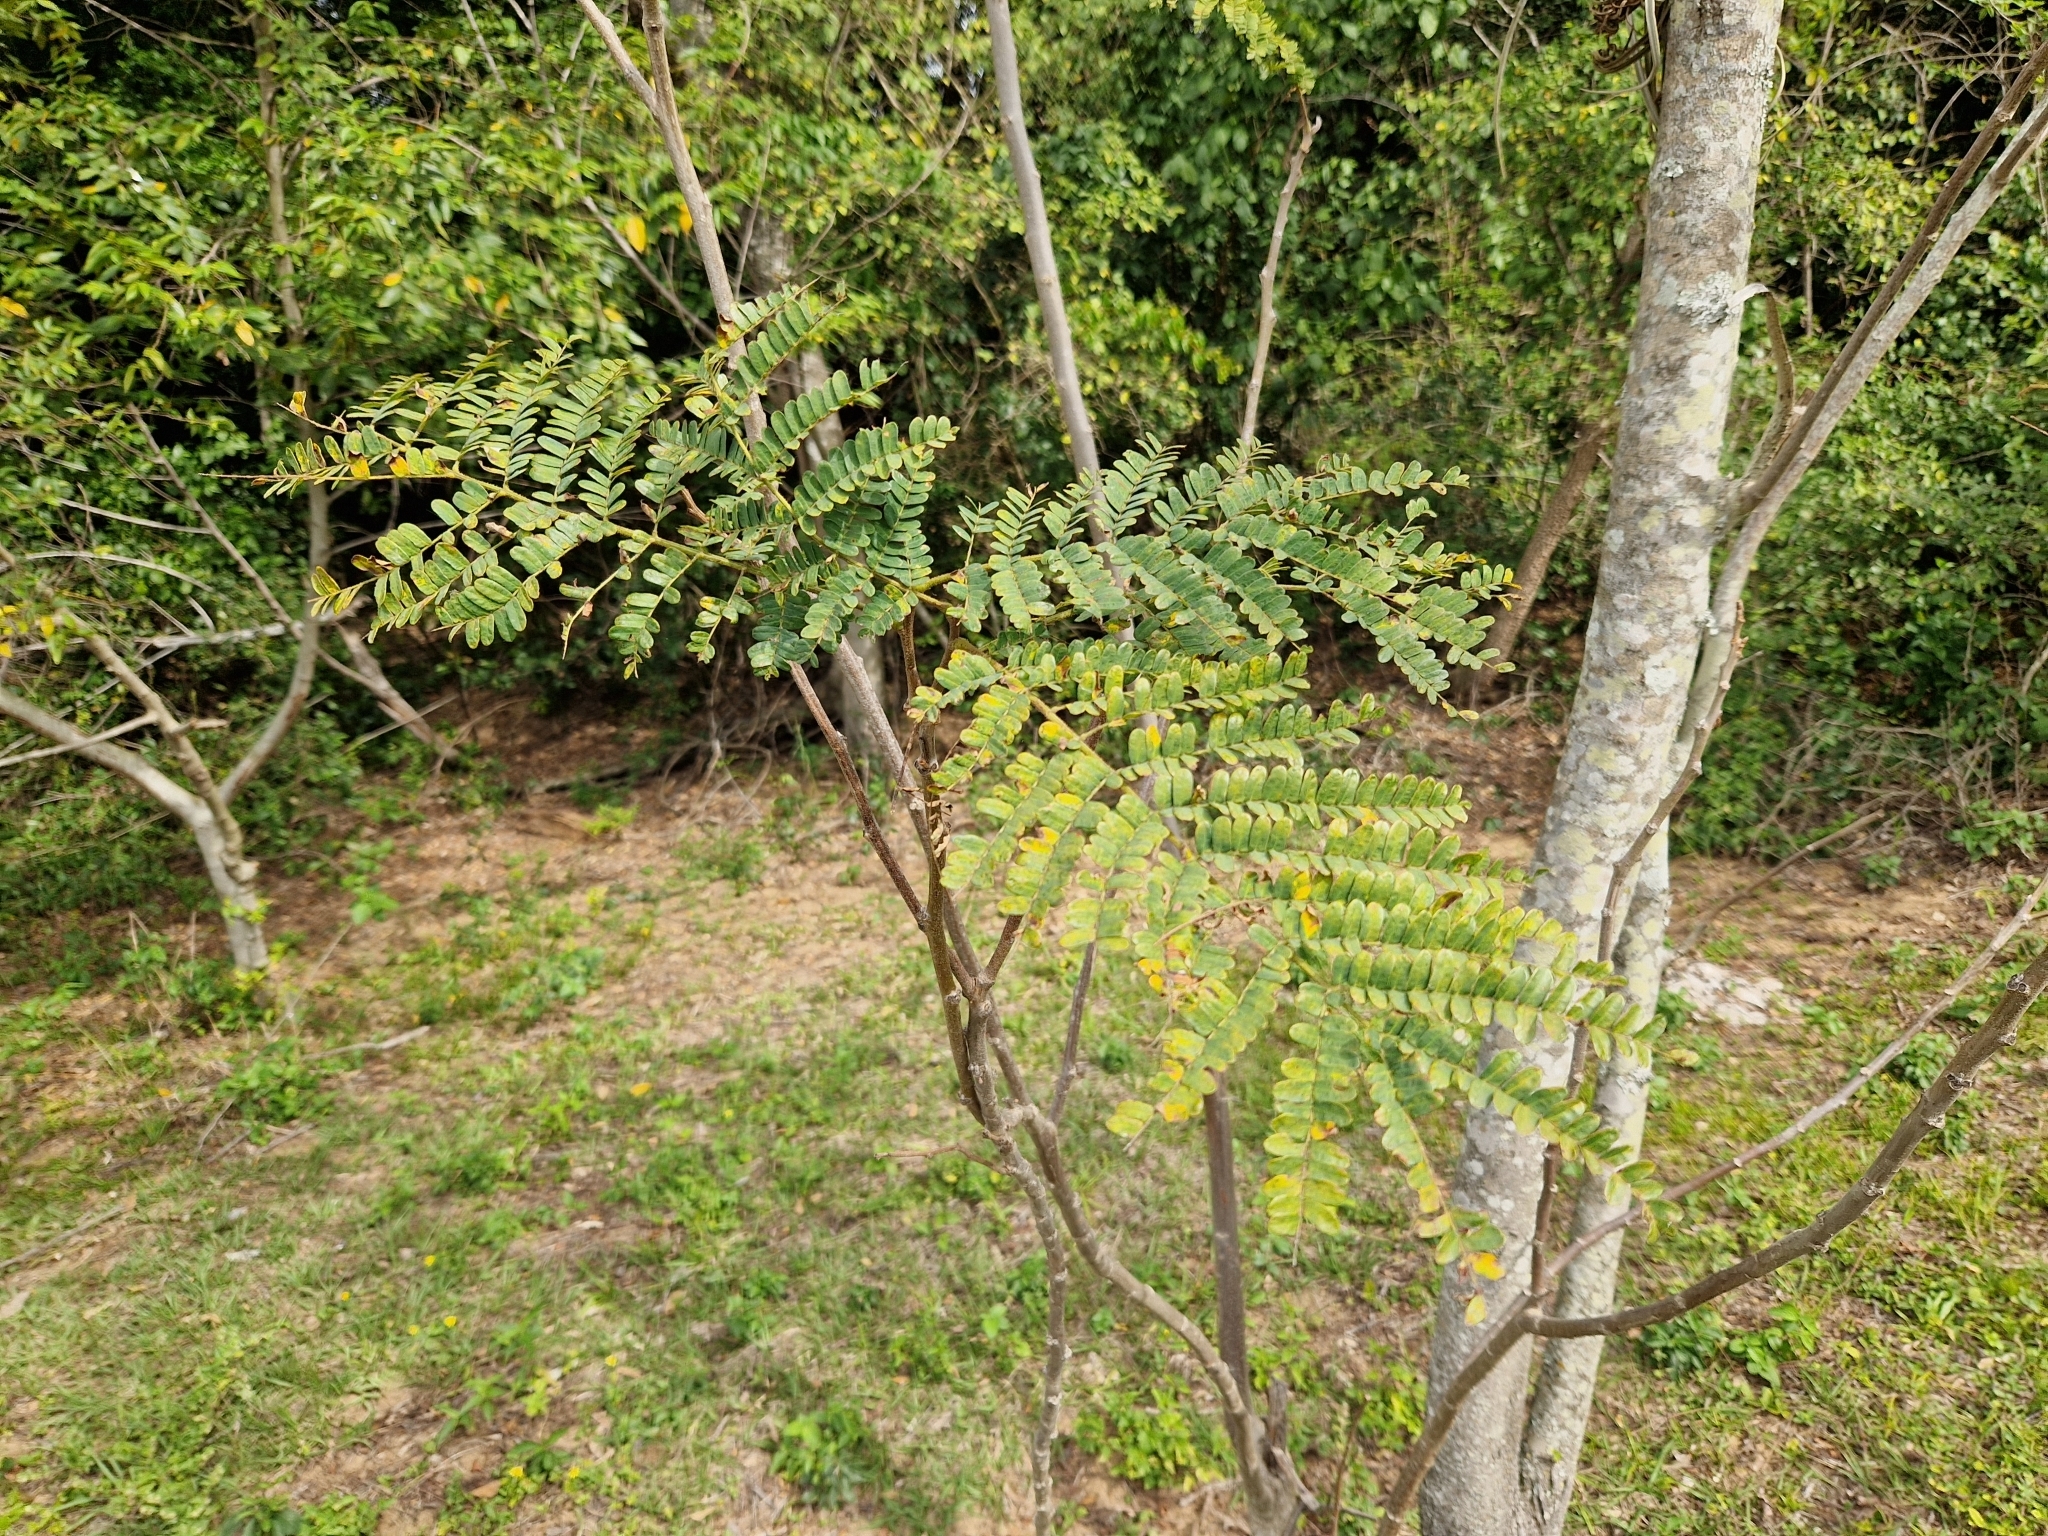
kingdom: Plantae
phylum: Tracheophyta
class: Magnoliopsida
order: Fabales
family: Fabaceae
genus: Peltophorum
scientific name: Peltophorum dubium
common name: Horsebush
